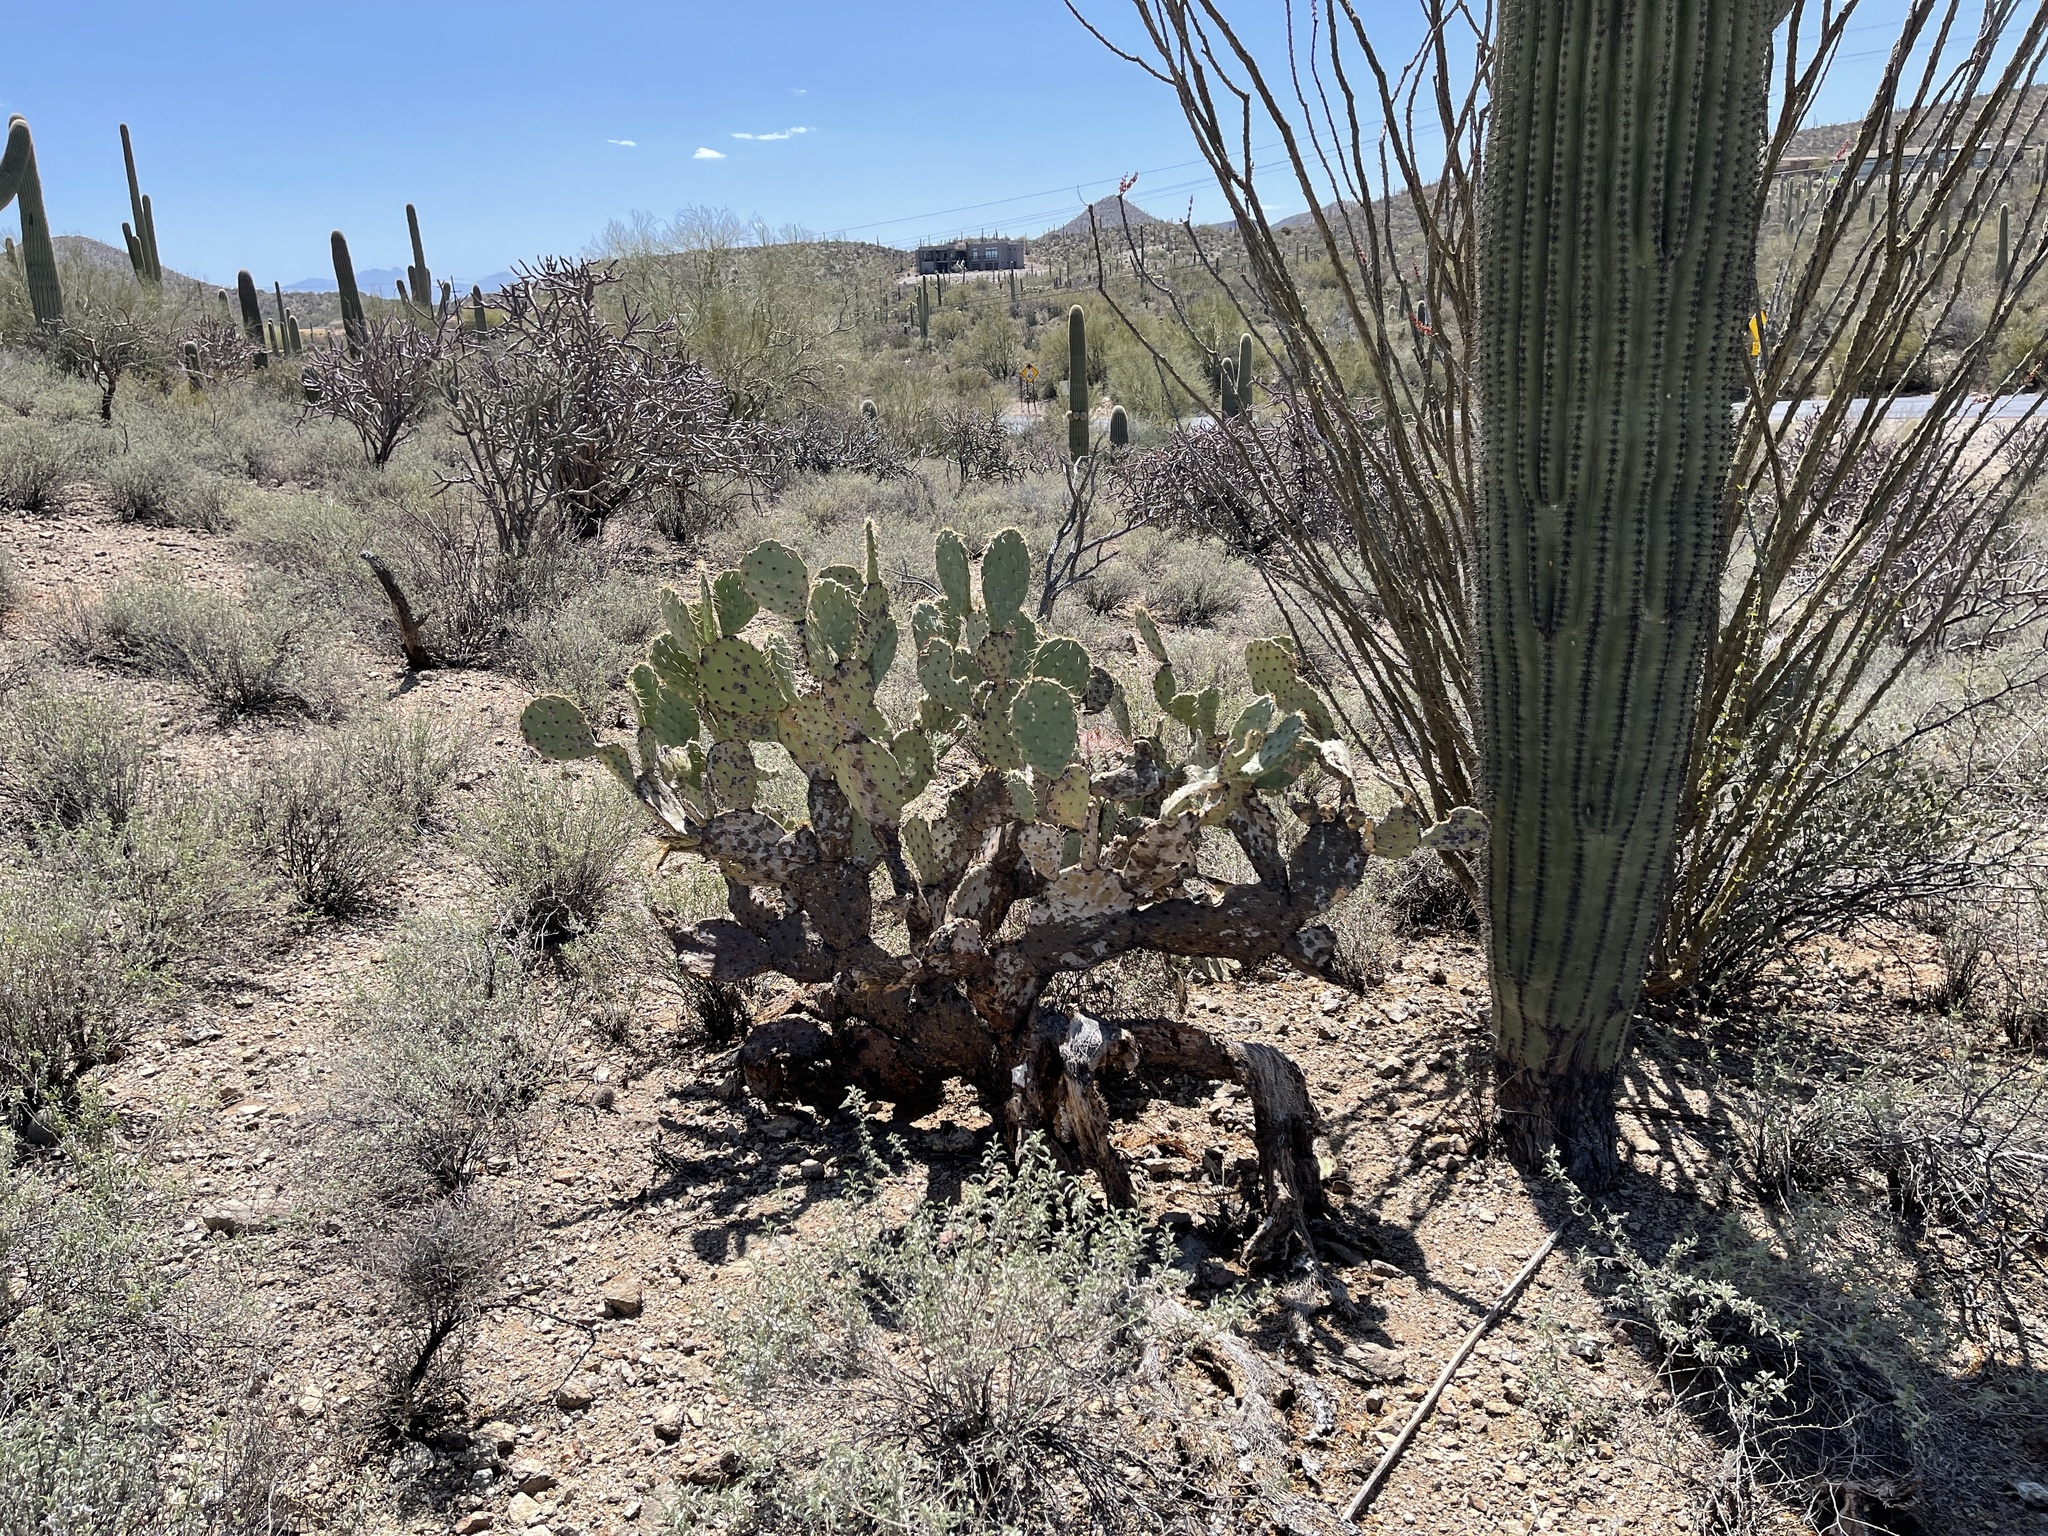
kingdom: Plantae
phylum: Tracheophyta
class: Magnoliopsida
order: Caryophyllales
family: Cactaceae
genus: Opuntia
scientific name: Opuntia engelmannii
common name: Cactus-apple
